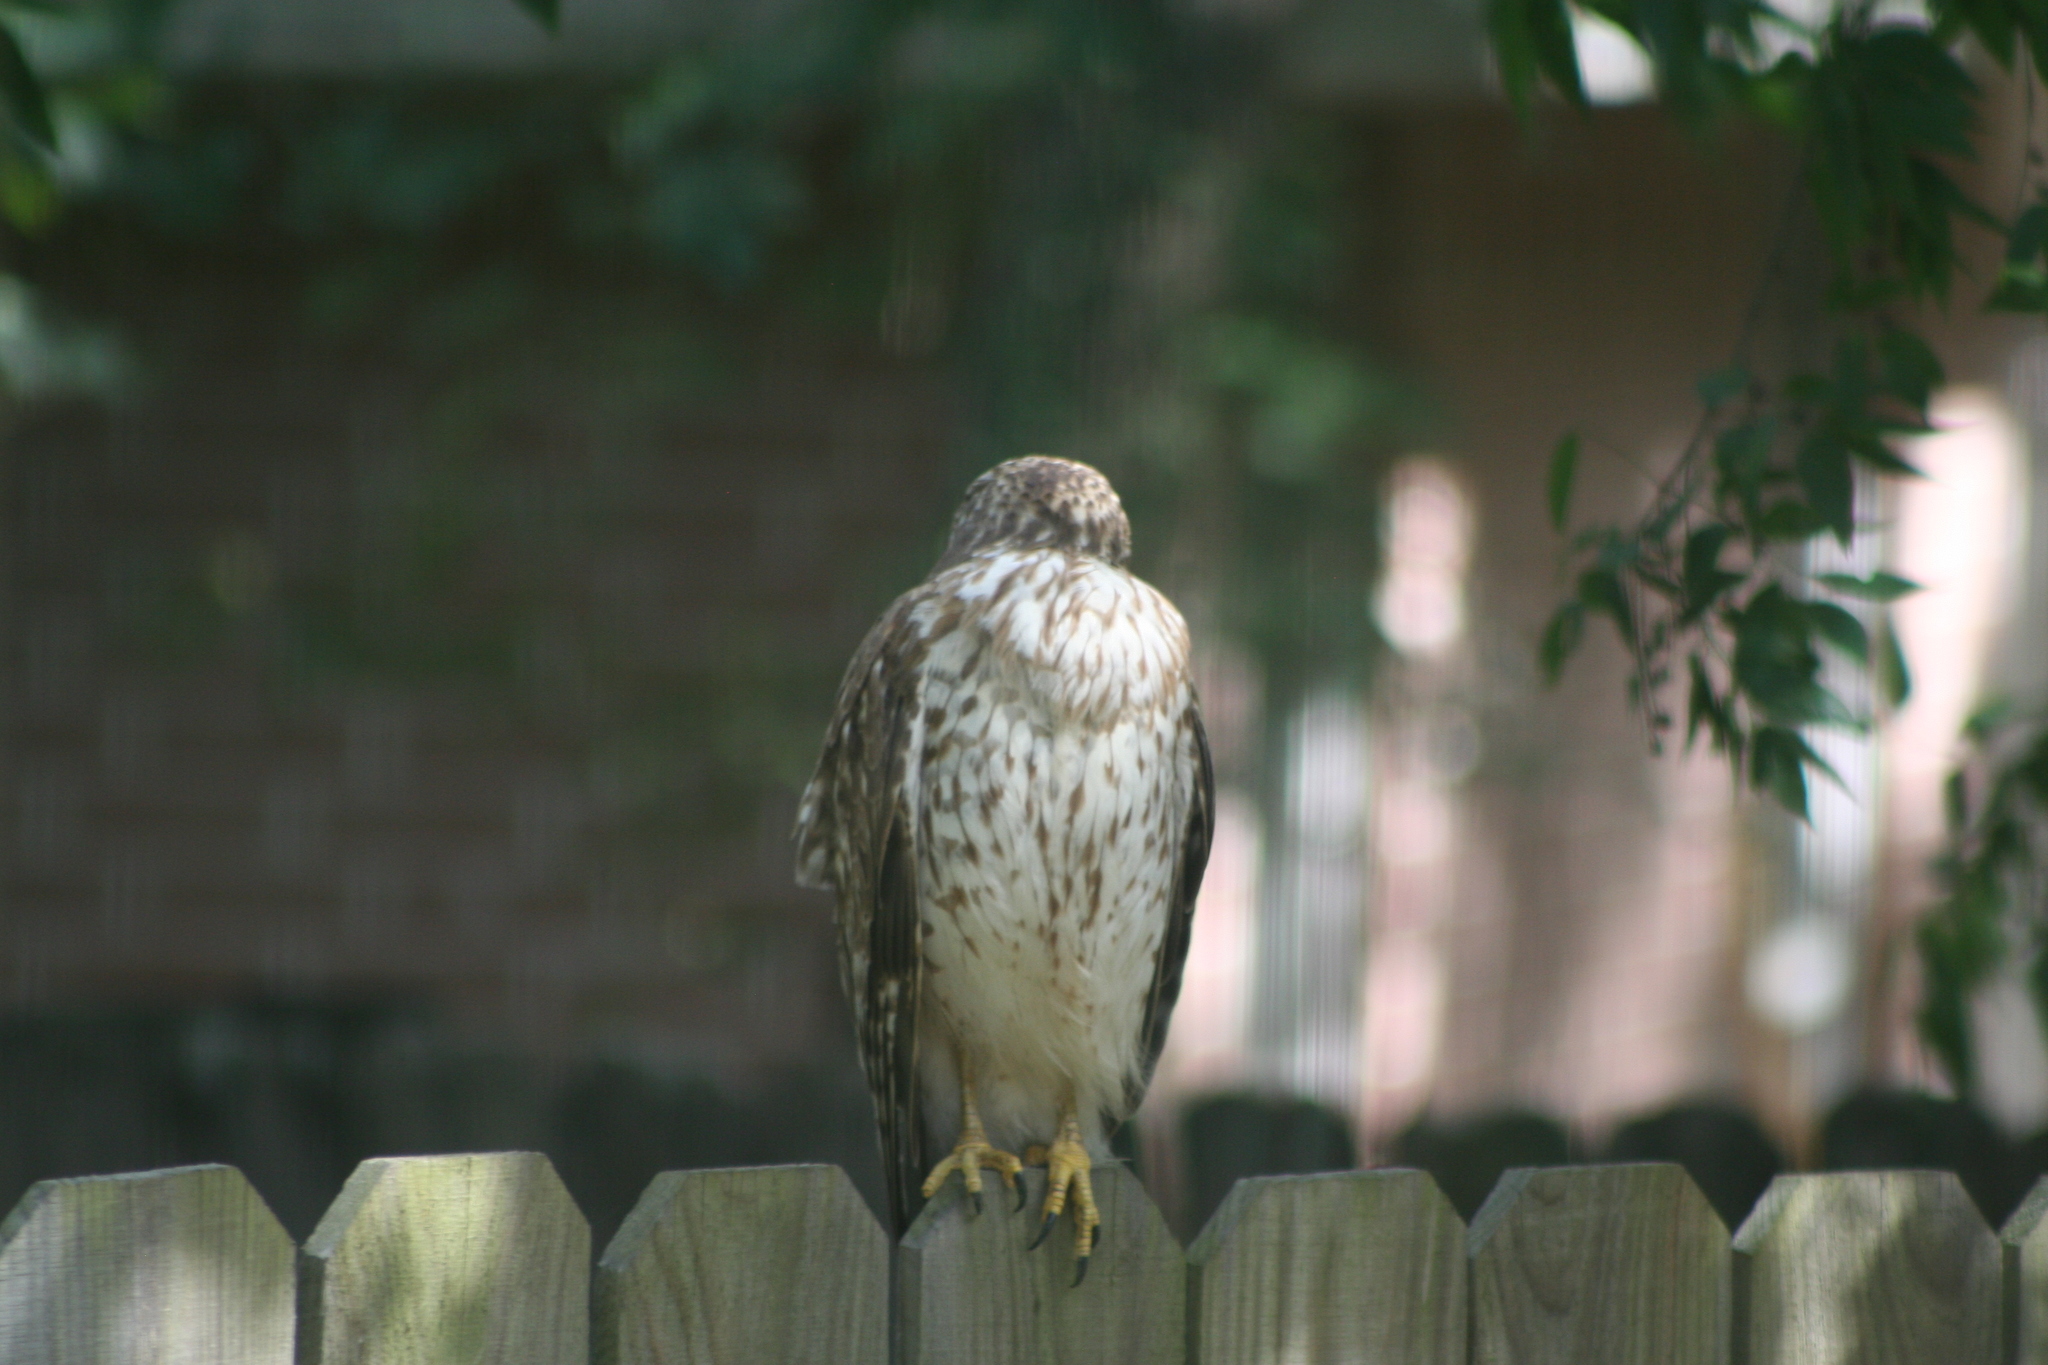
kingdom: Animalia
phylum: Chordata
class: Aves
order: Accipitriformes
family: Accipitridae
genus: Buteo
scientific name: Buteo lineatus
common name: Red-shouldered hawk
